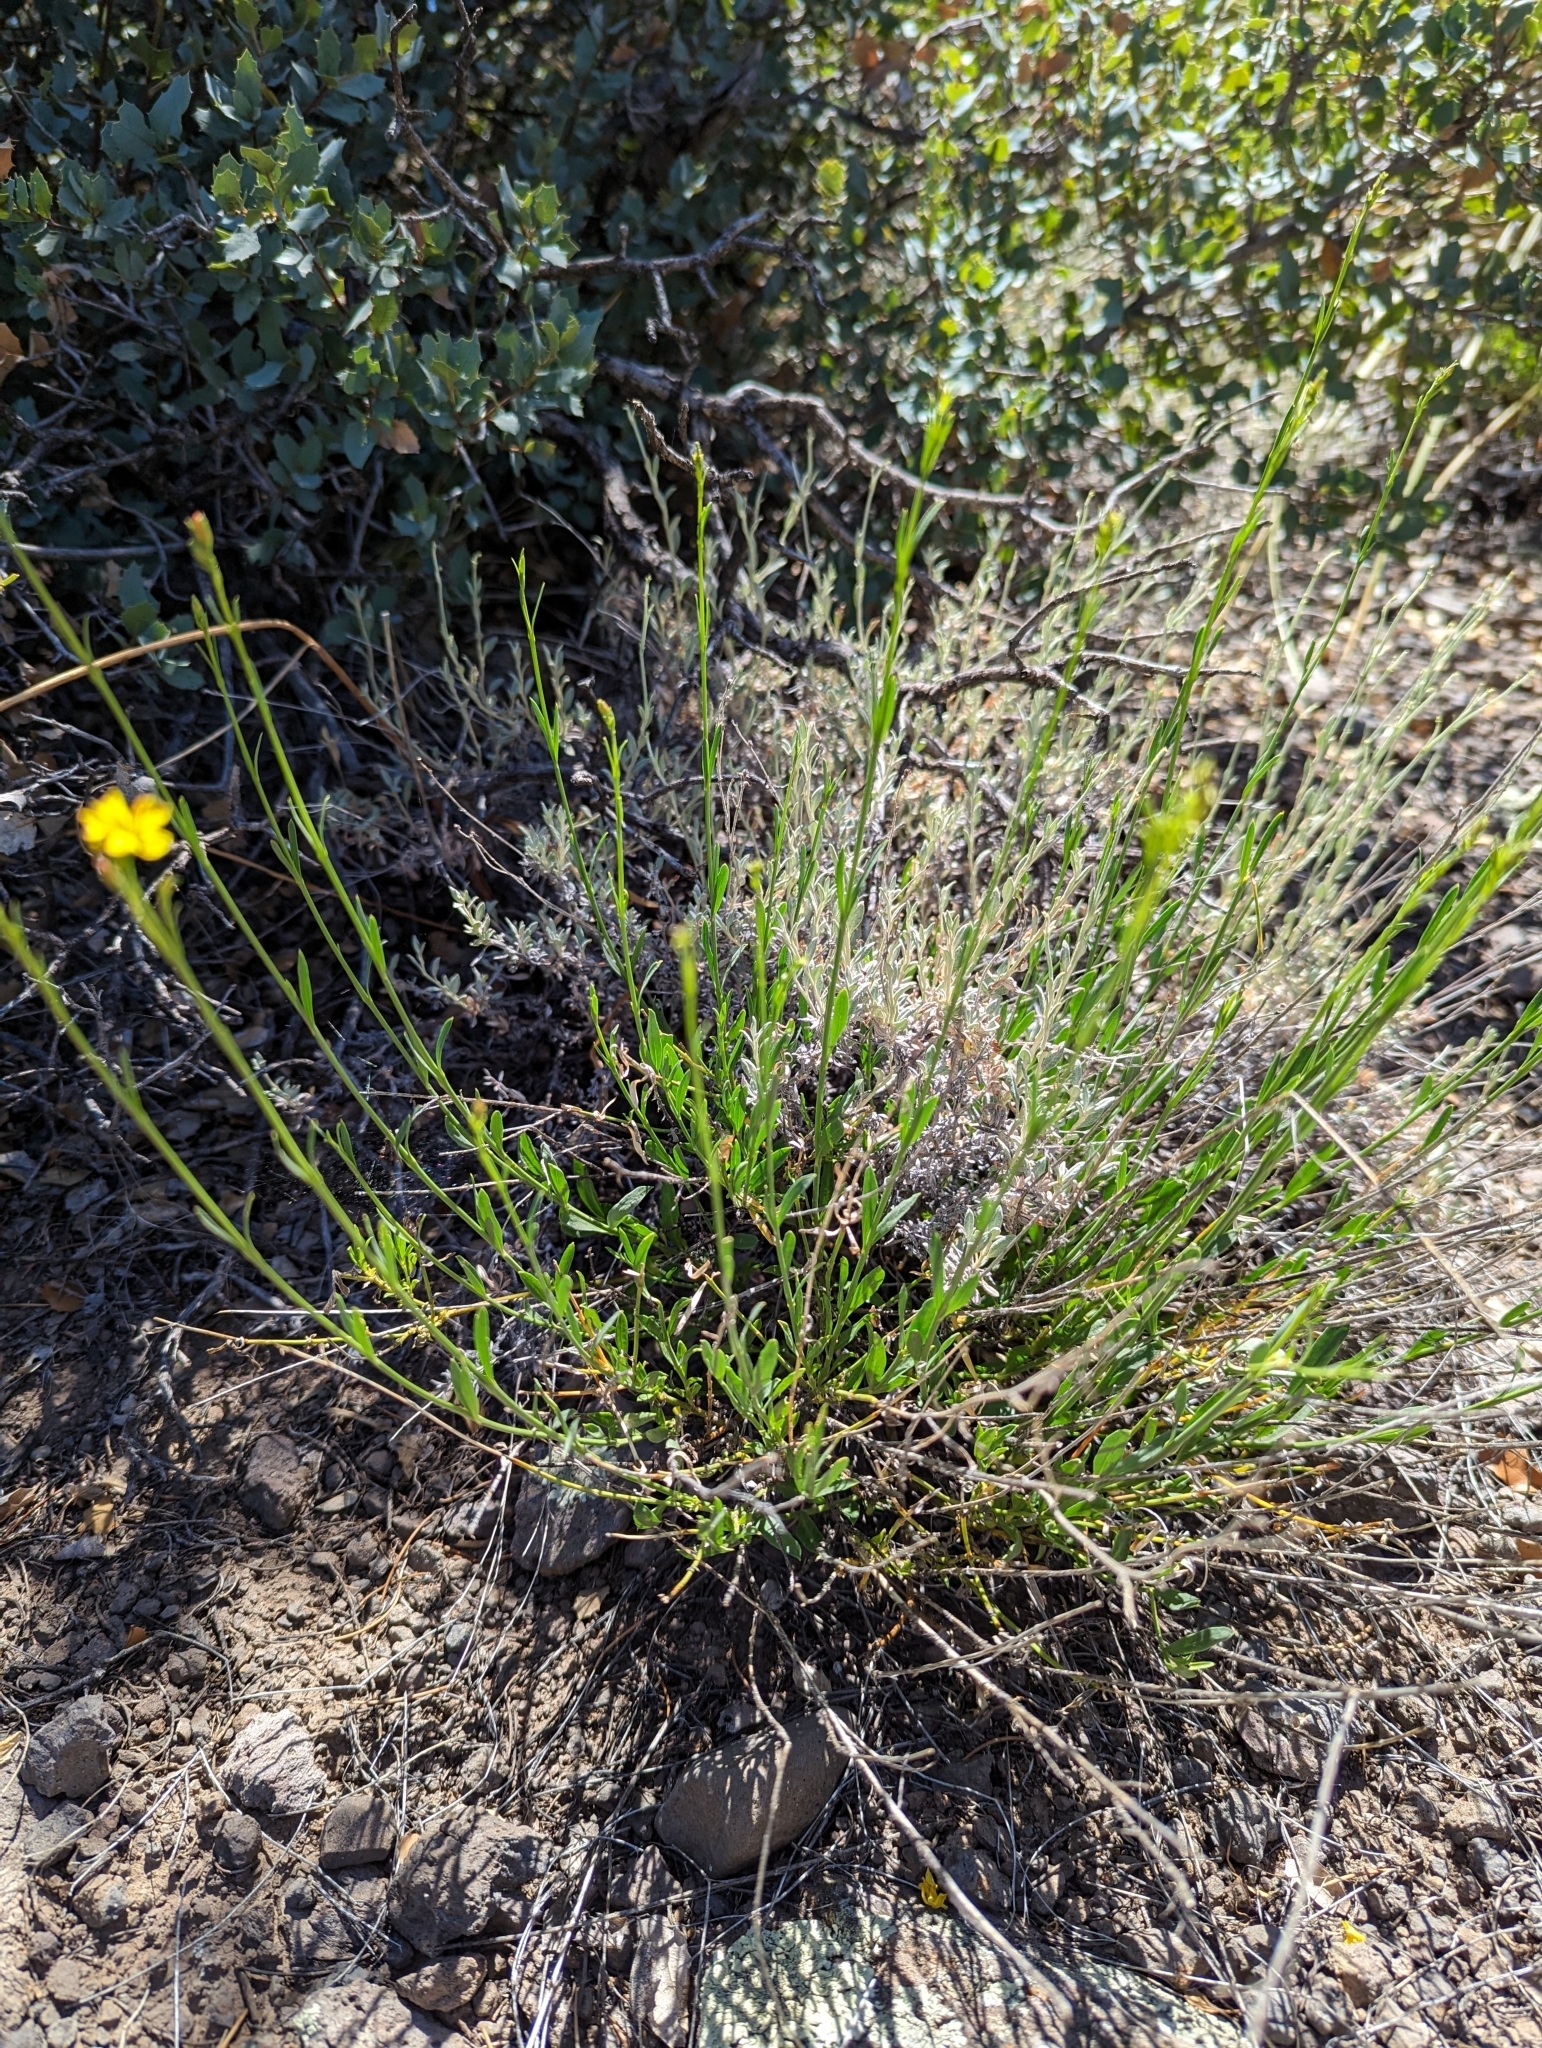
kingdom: Plantae
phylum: Tracheophyta
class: Magnoliopsida
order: Lamiales
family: Oleaceae
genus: Menodora
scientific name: Menodora scabra
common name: Rough menodora
